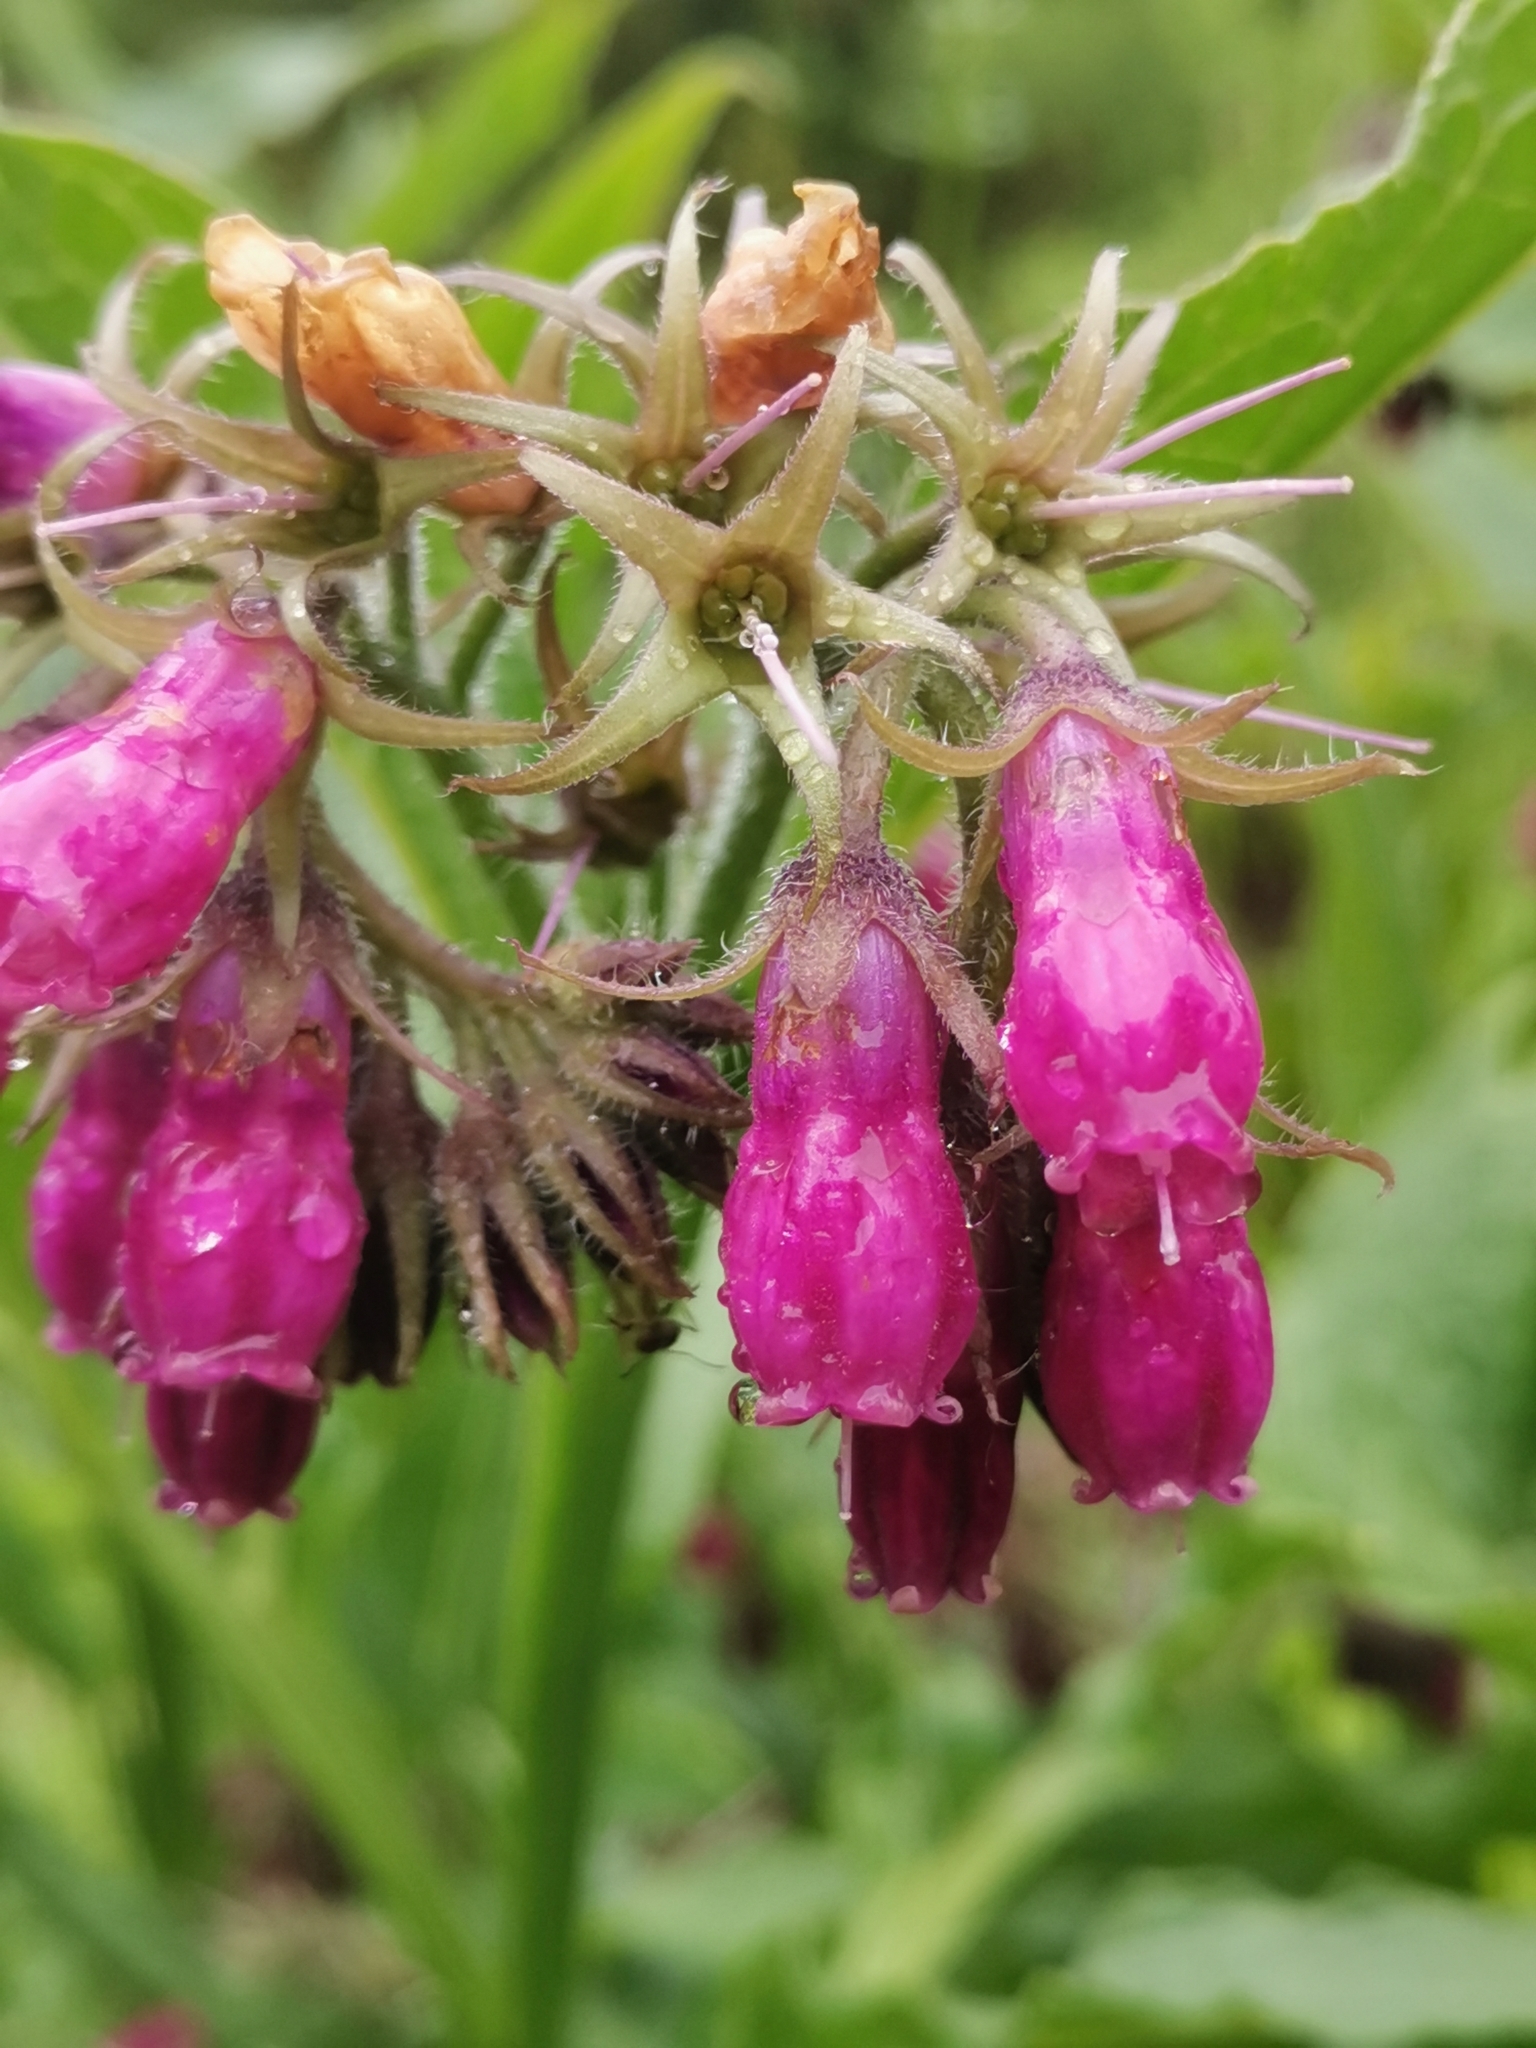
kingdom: Plantae
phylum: Tracheophyta
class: Magnoliopsida
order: Boraginales
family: Boraginaceae
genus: Symphytum
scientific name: Symphytum officinale
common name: Common comfrey
